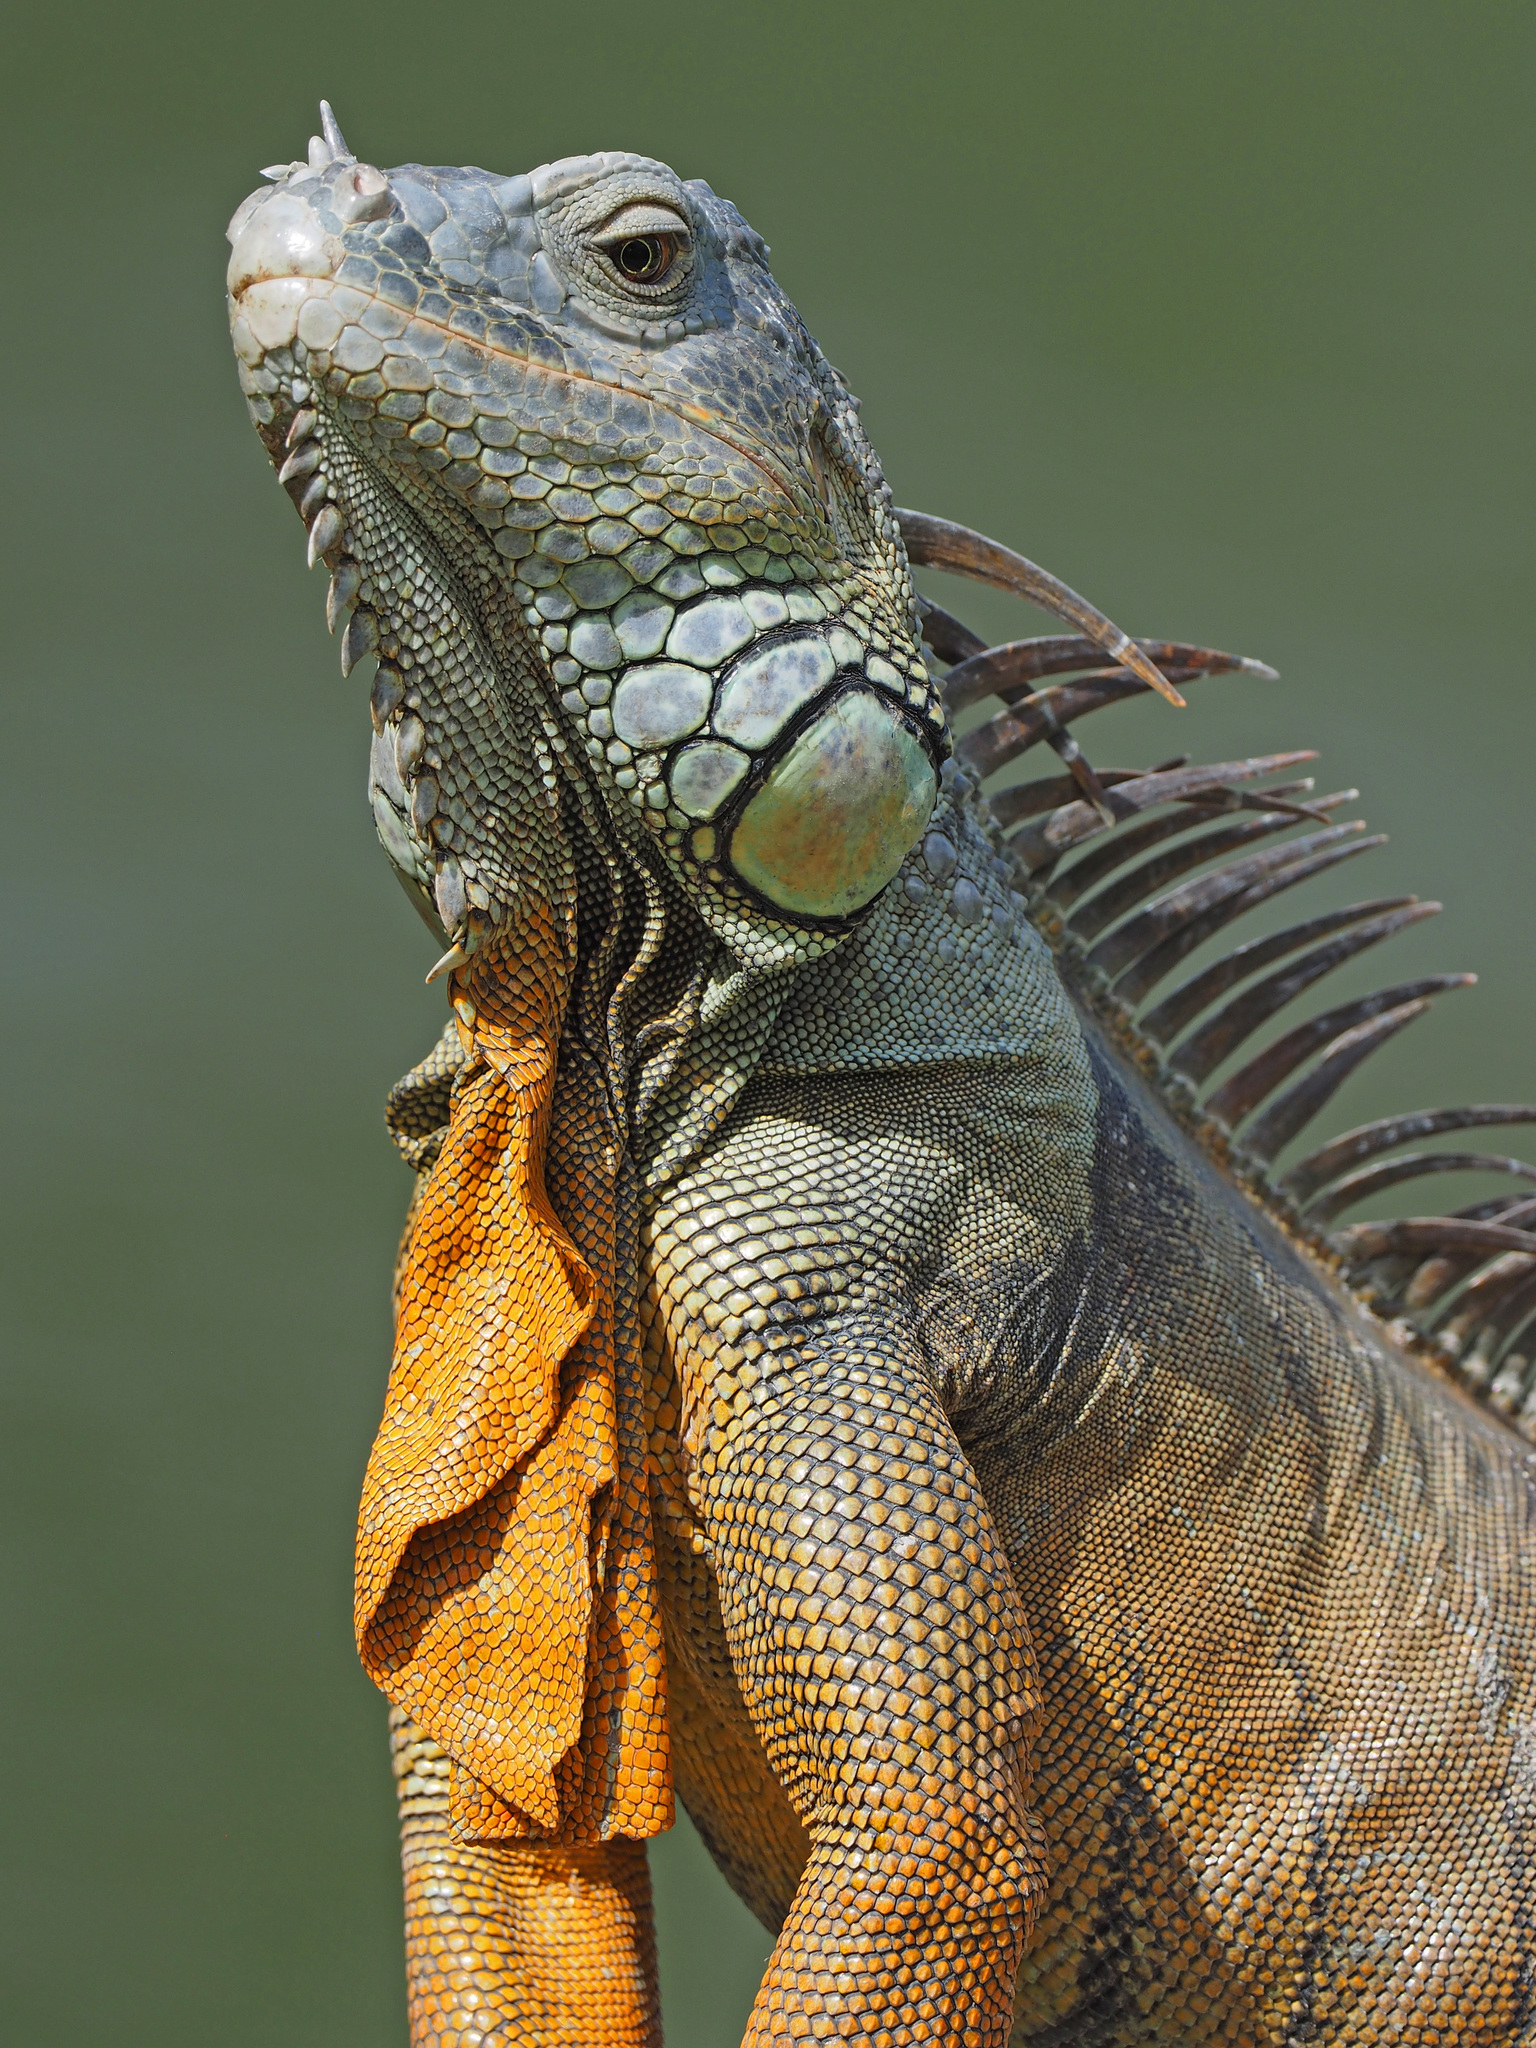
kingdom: Animalia
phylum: Chordata
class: Squamata
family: Iguanidae
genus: Iguana
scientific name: Iguana iguana
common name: Green iguana
